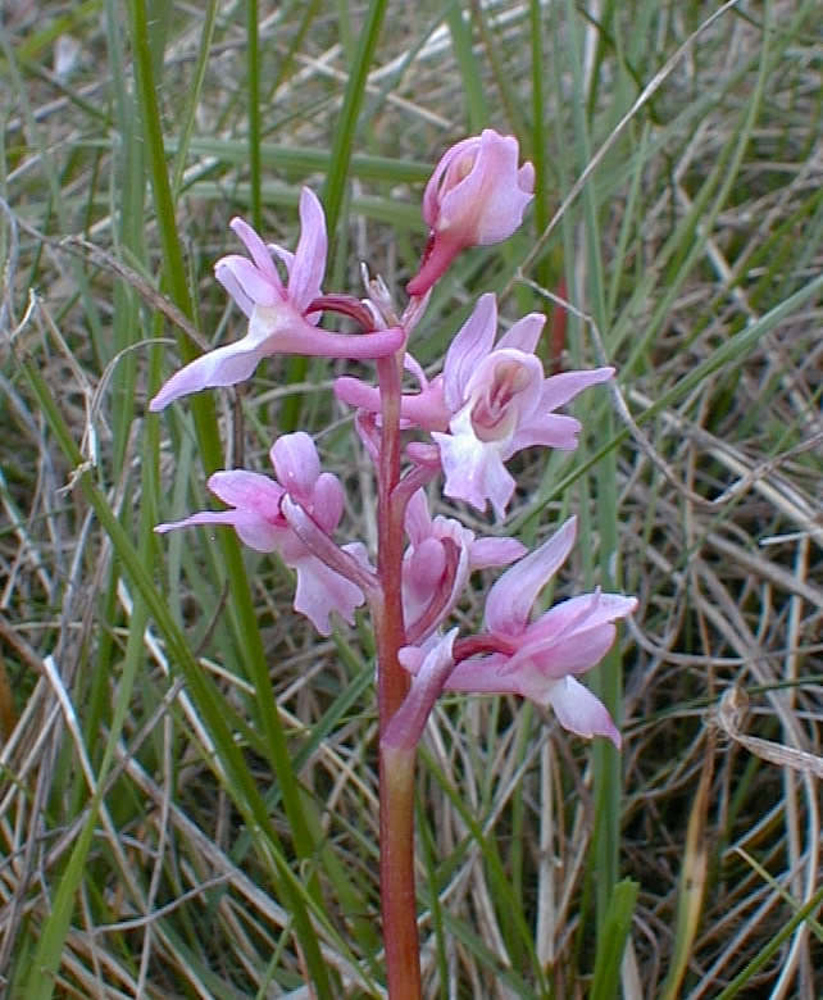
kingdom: Plantae
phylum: Tracheophyta
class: Liliopsida
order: Asparagales
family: Orchidaceae
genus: Orchis
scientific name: Orchis mascula
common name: Early-purple orchid
